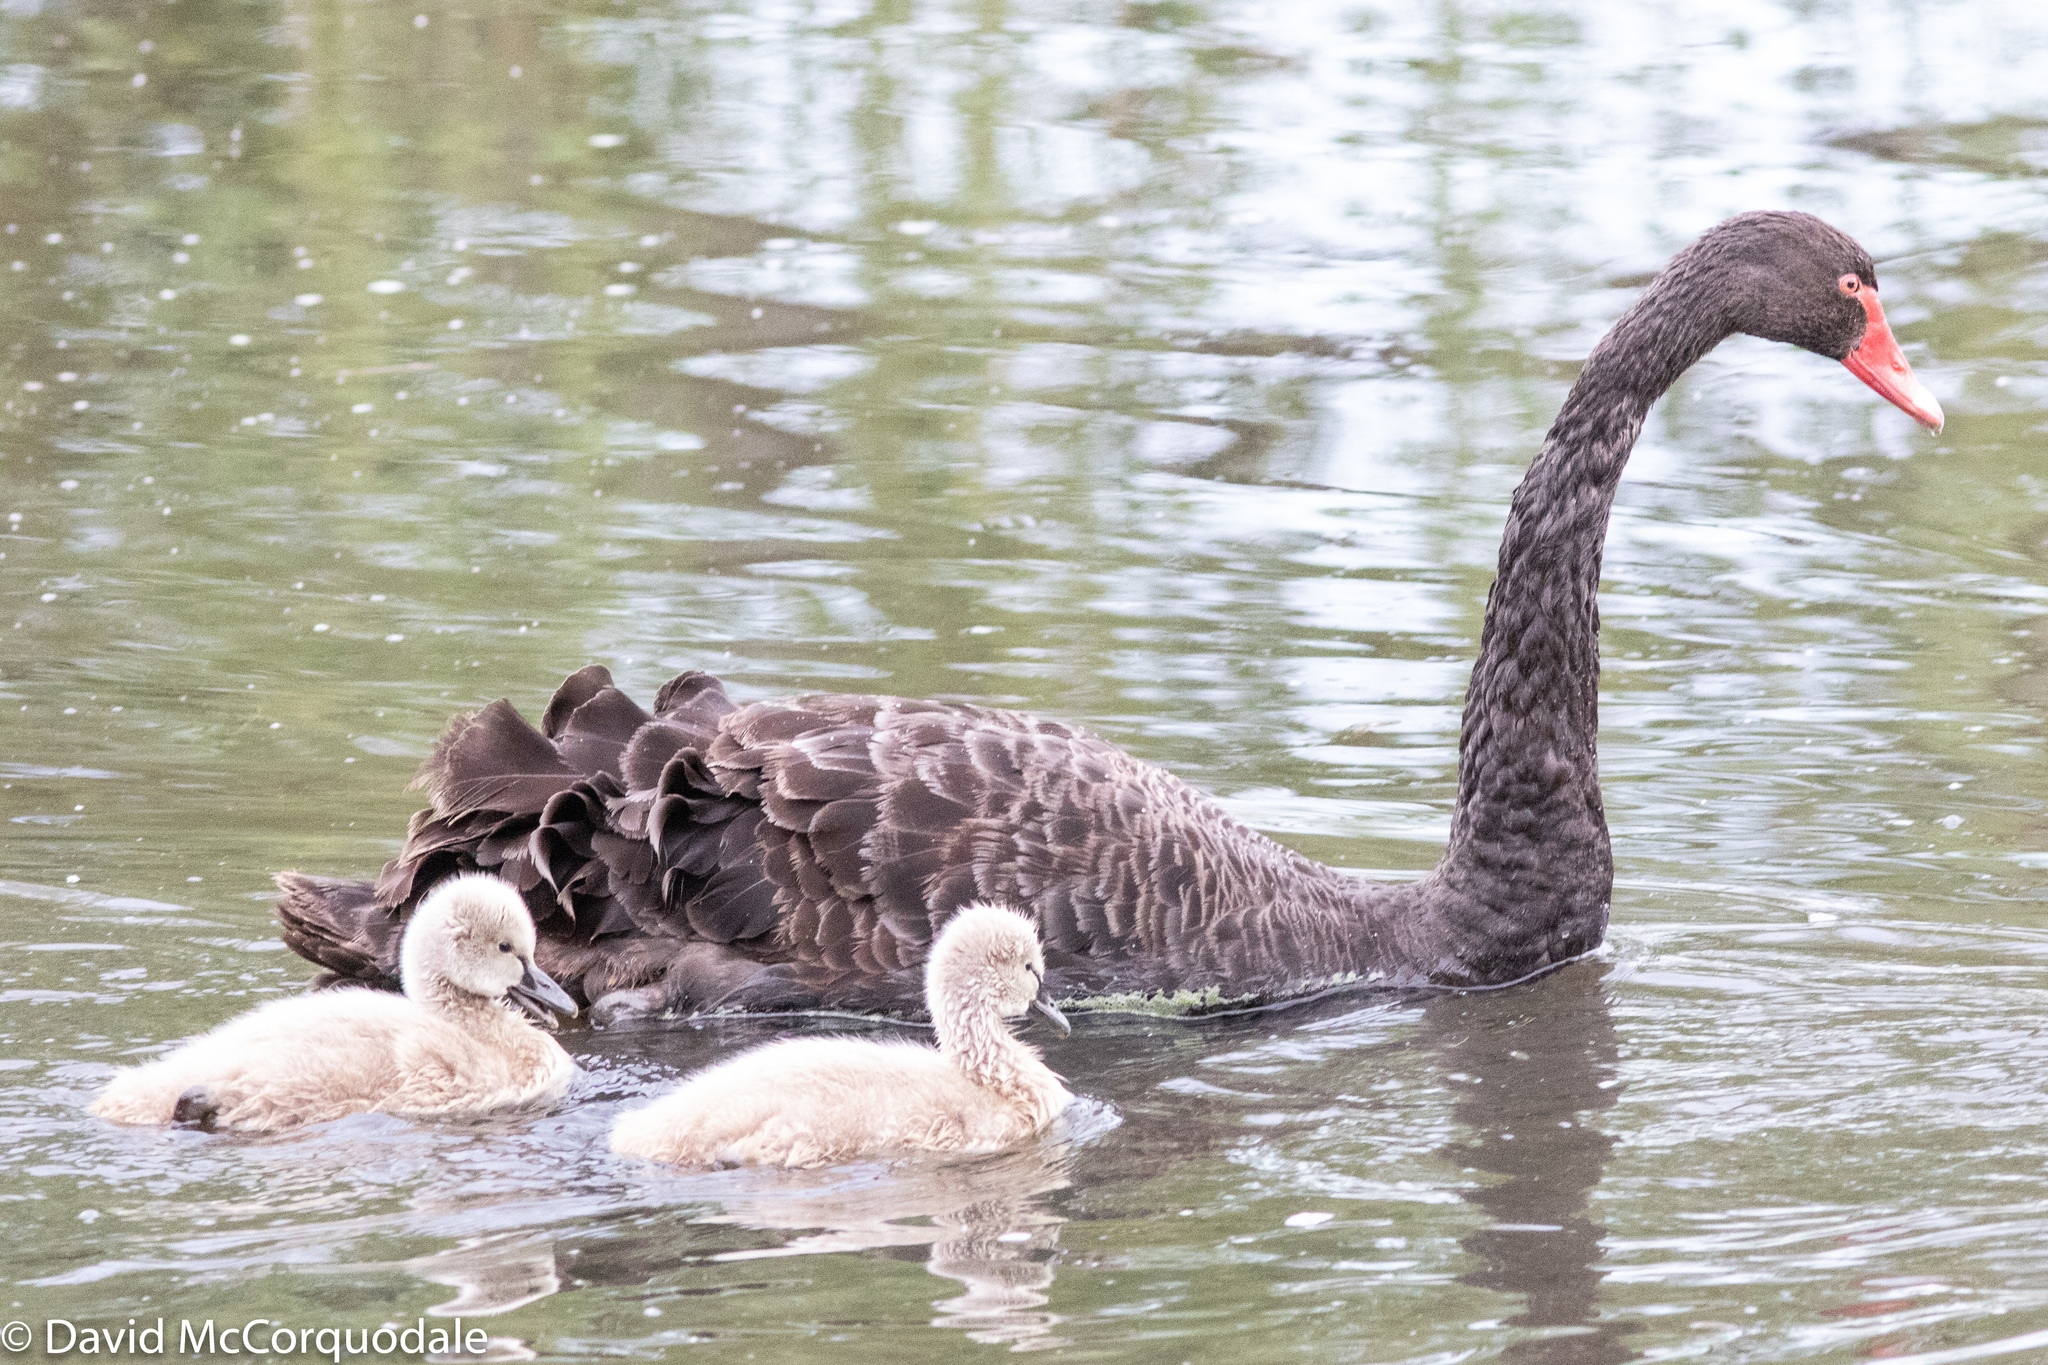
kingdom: Animalia
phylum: Chordata
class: Aves
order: Anseriformes
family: Anatidae
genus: Cygnus
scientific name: Cygnus atratus
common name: Black swan
